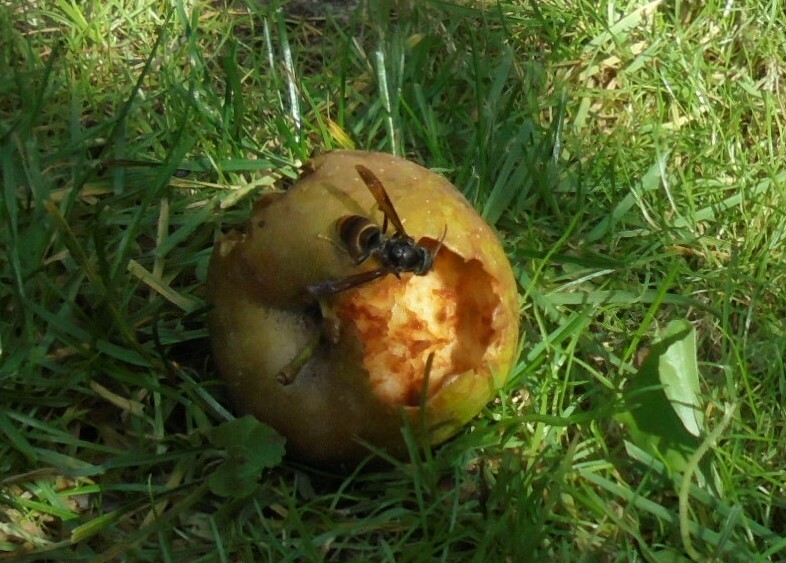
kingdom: Animalia
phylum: Arthropoda
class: Insecta
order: Hymenoptera
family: Vespidae
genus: Vespa
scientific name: Vespa velutina
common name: Asian hornet
